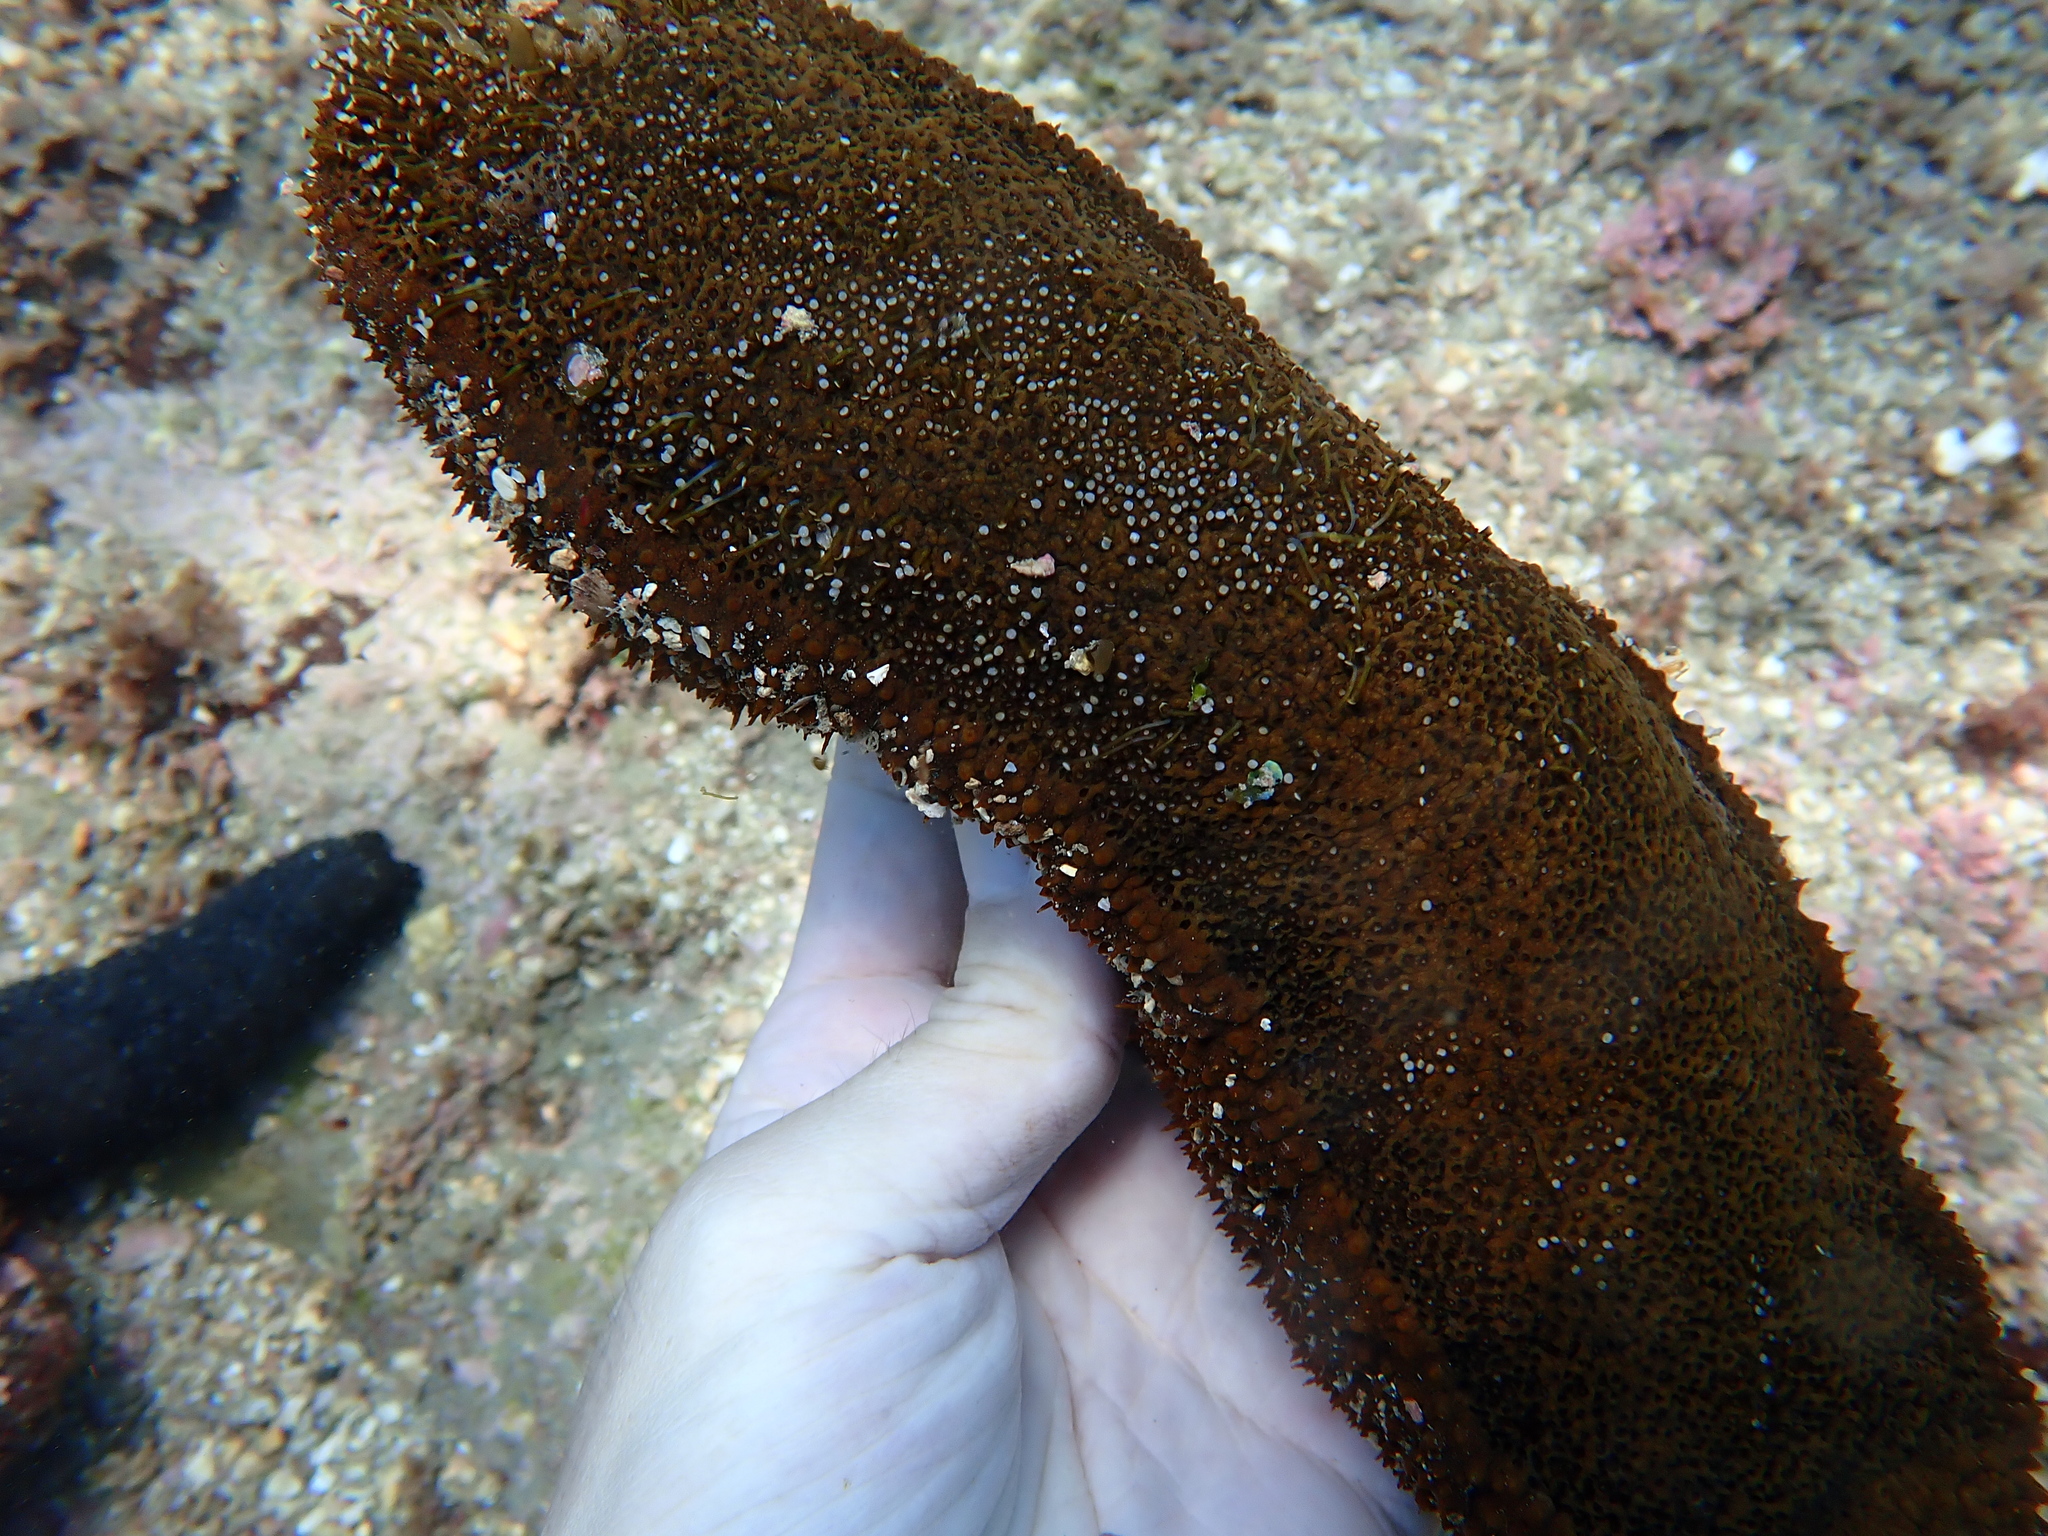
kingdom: Animalia
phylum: Echinodermata
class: Holothuroidea
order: Holothuriida
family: Holothuriidae
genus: Actinopyga
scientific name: Actinopyga echinites
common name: Brownfish
